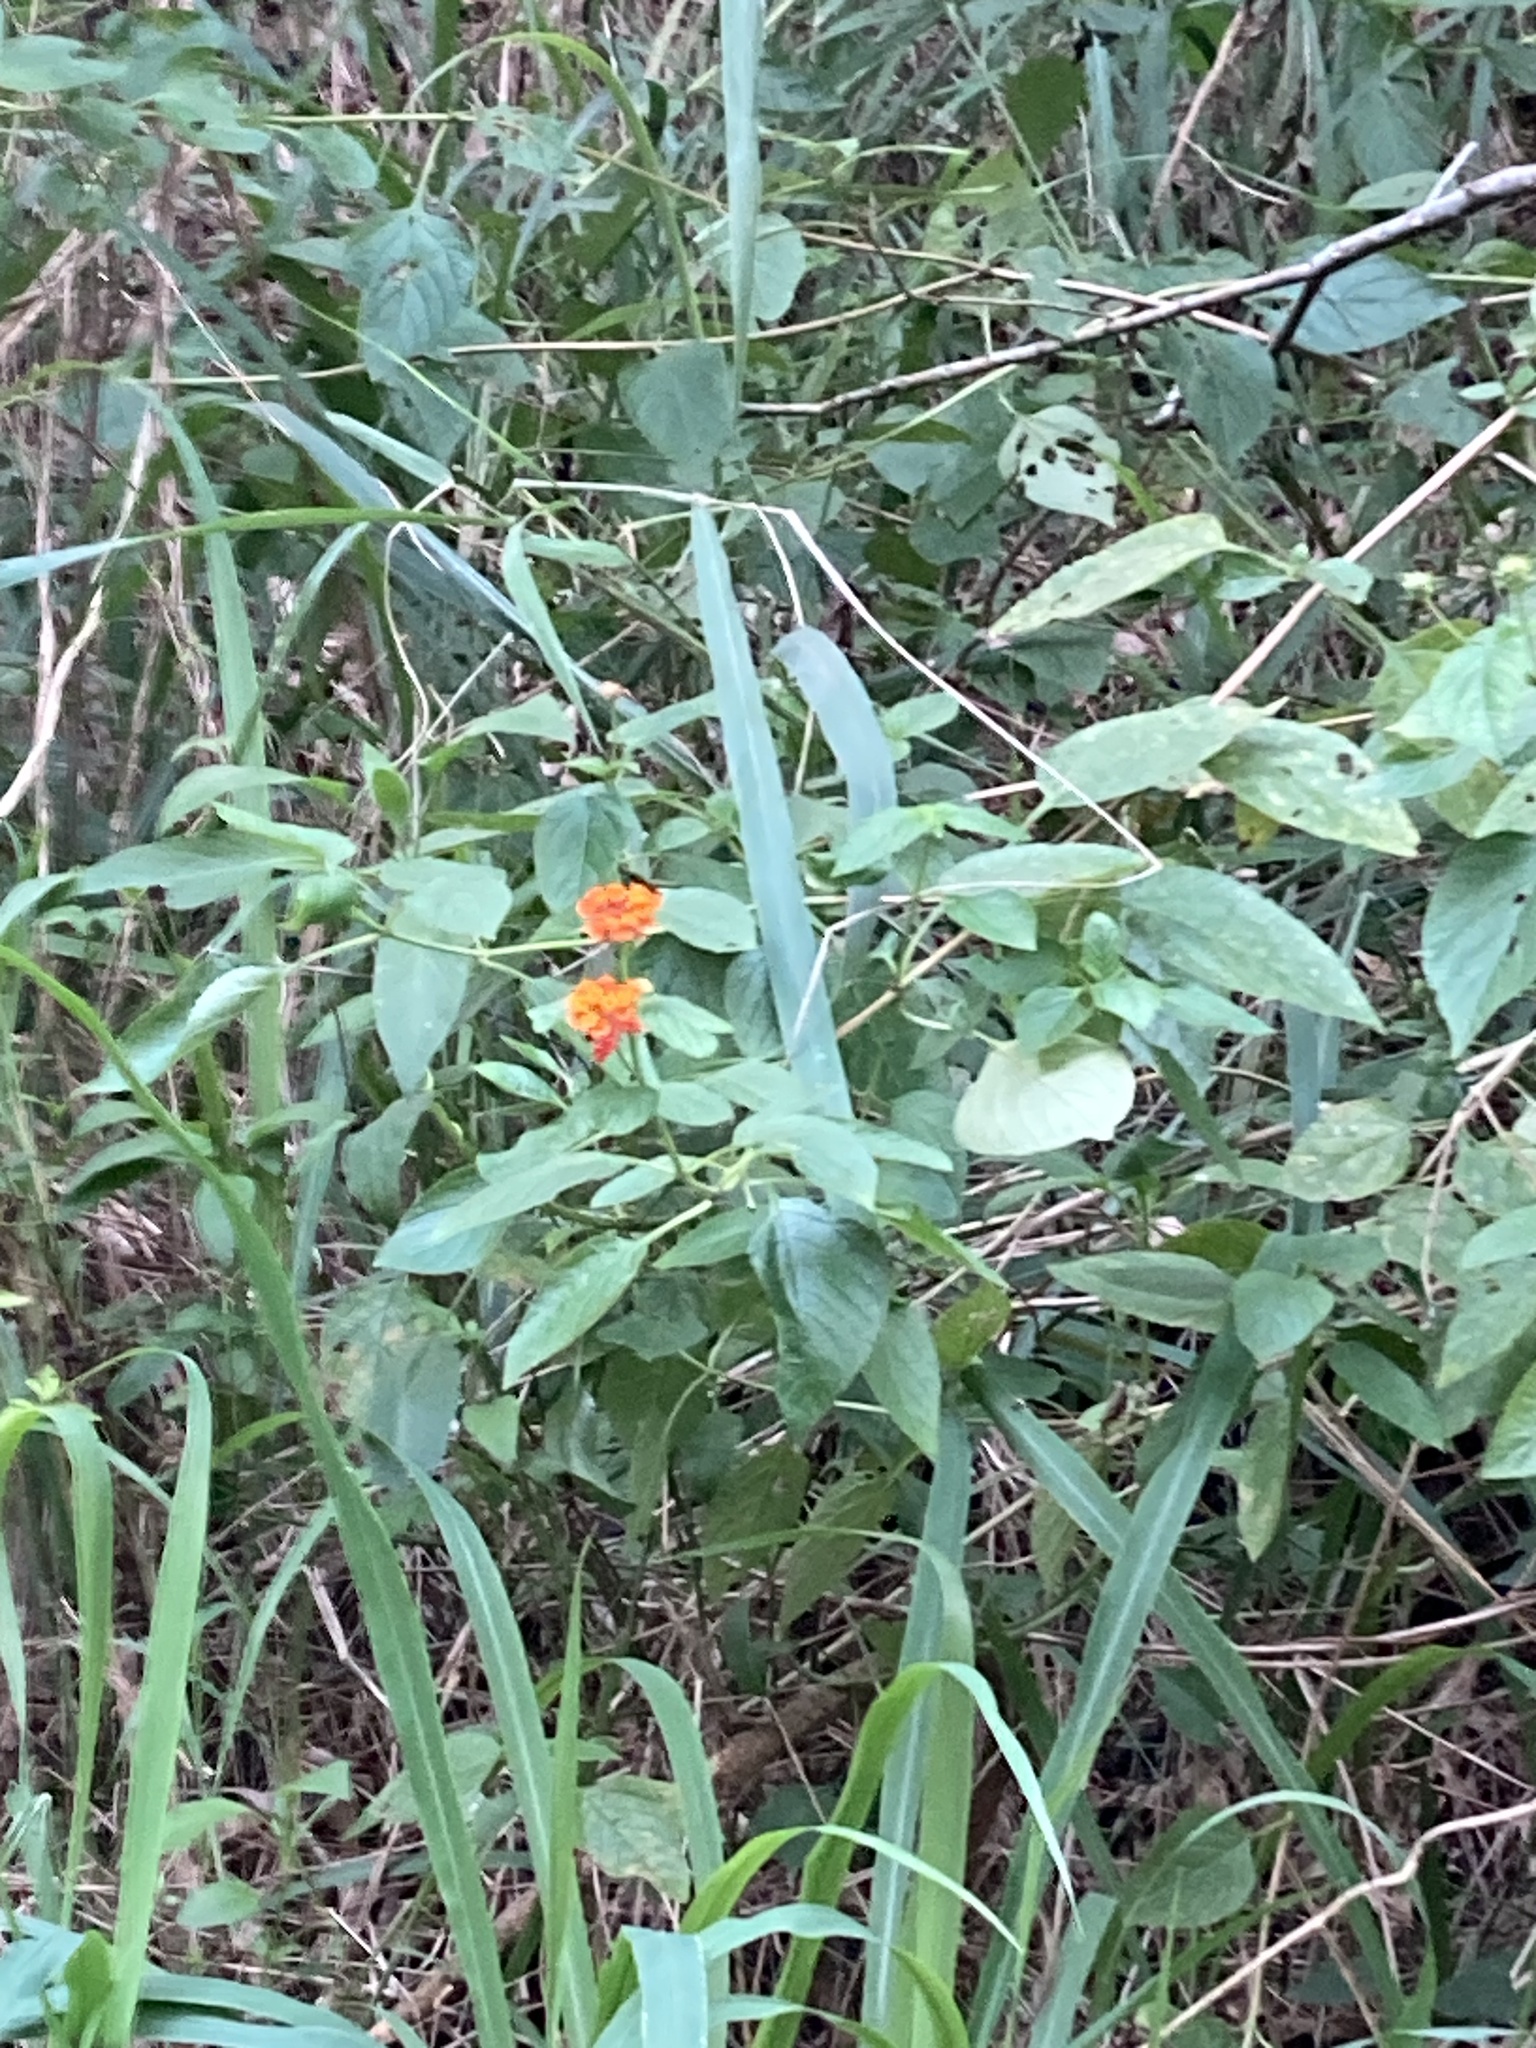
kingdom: Plantae
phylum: Tracheophyta
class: Magnoliopsida
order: Lamiales
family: Verbenaceae
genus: Lantana
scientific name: Lantana camara
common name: Lantana
